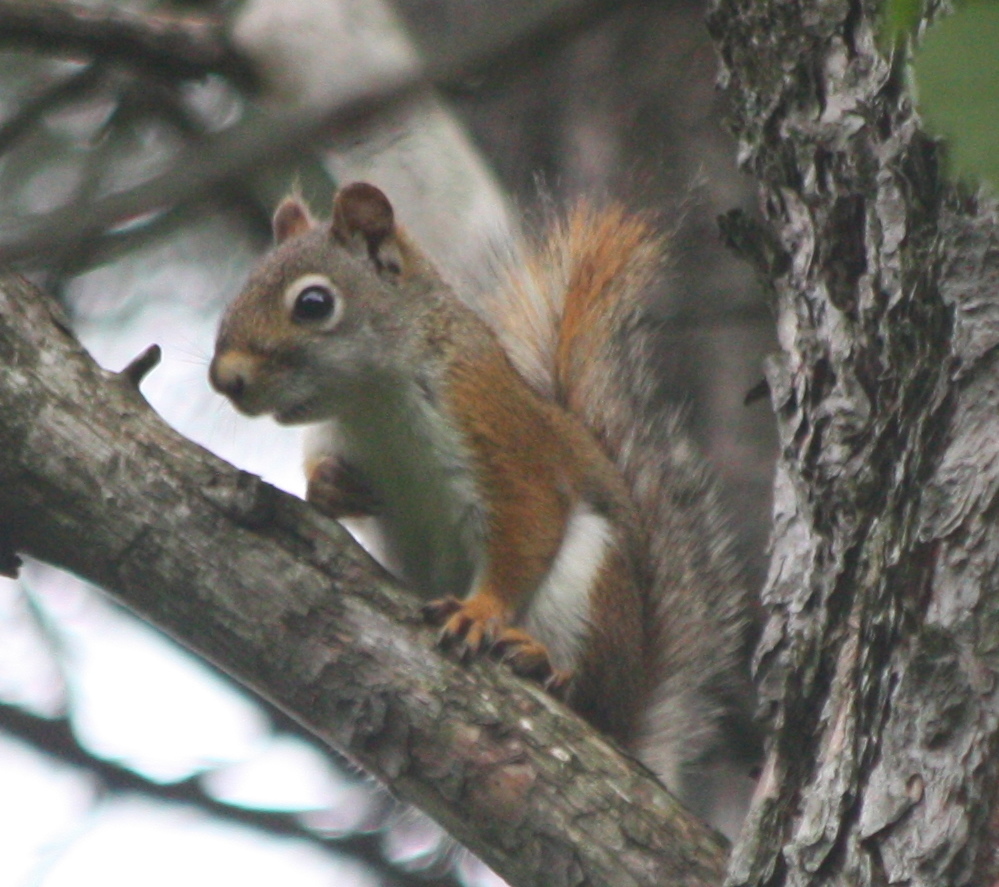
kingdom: Animalia
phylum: Chordata
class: Mammalia
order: Rodentia
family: Sciuridae
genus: Tamiasciurus
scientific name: Tamiasciurus hudsonicus
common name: Red squirrel
